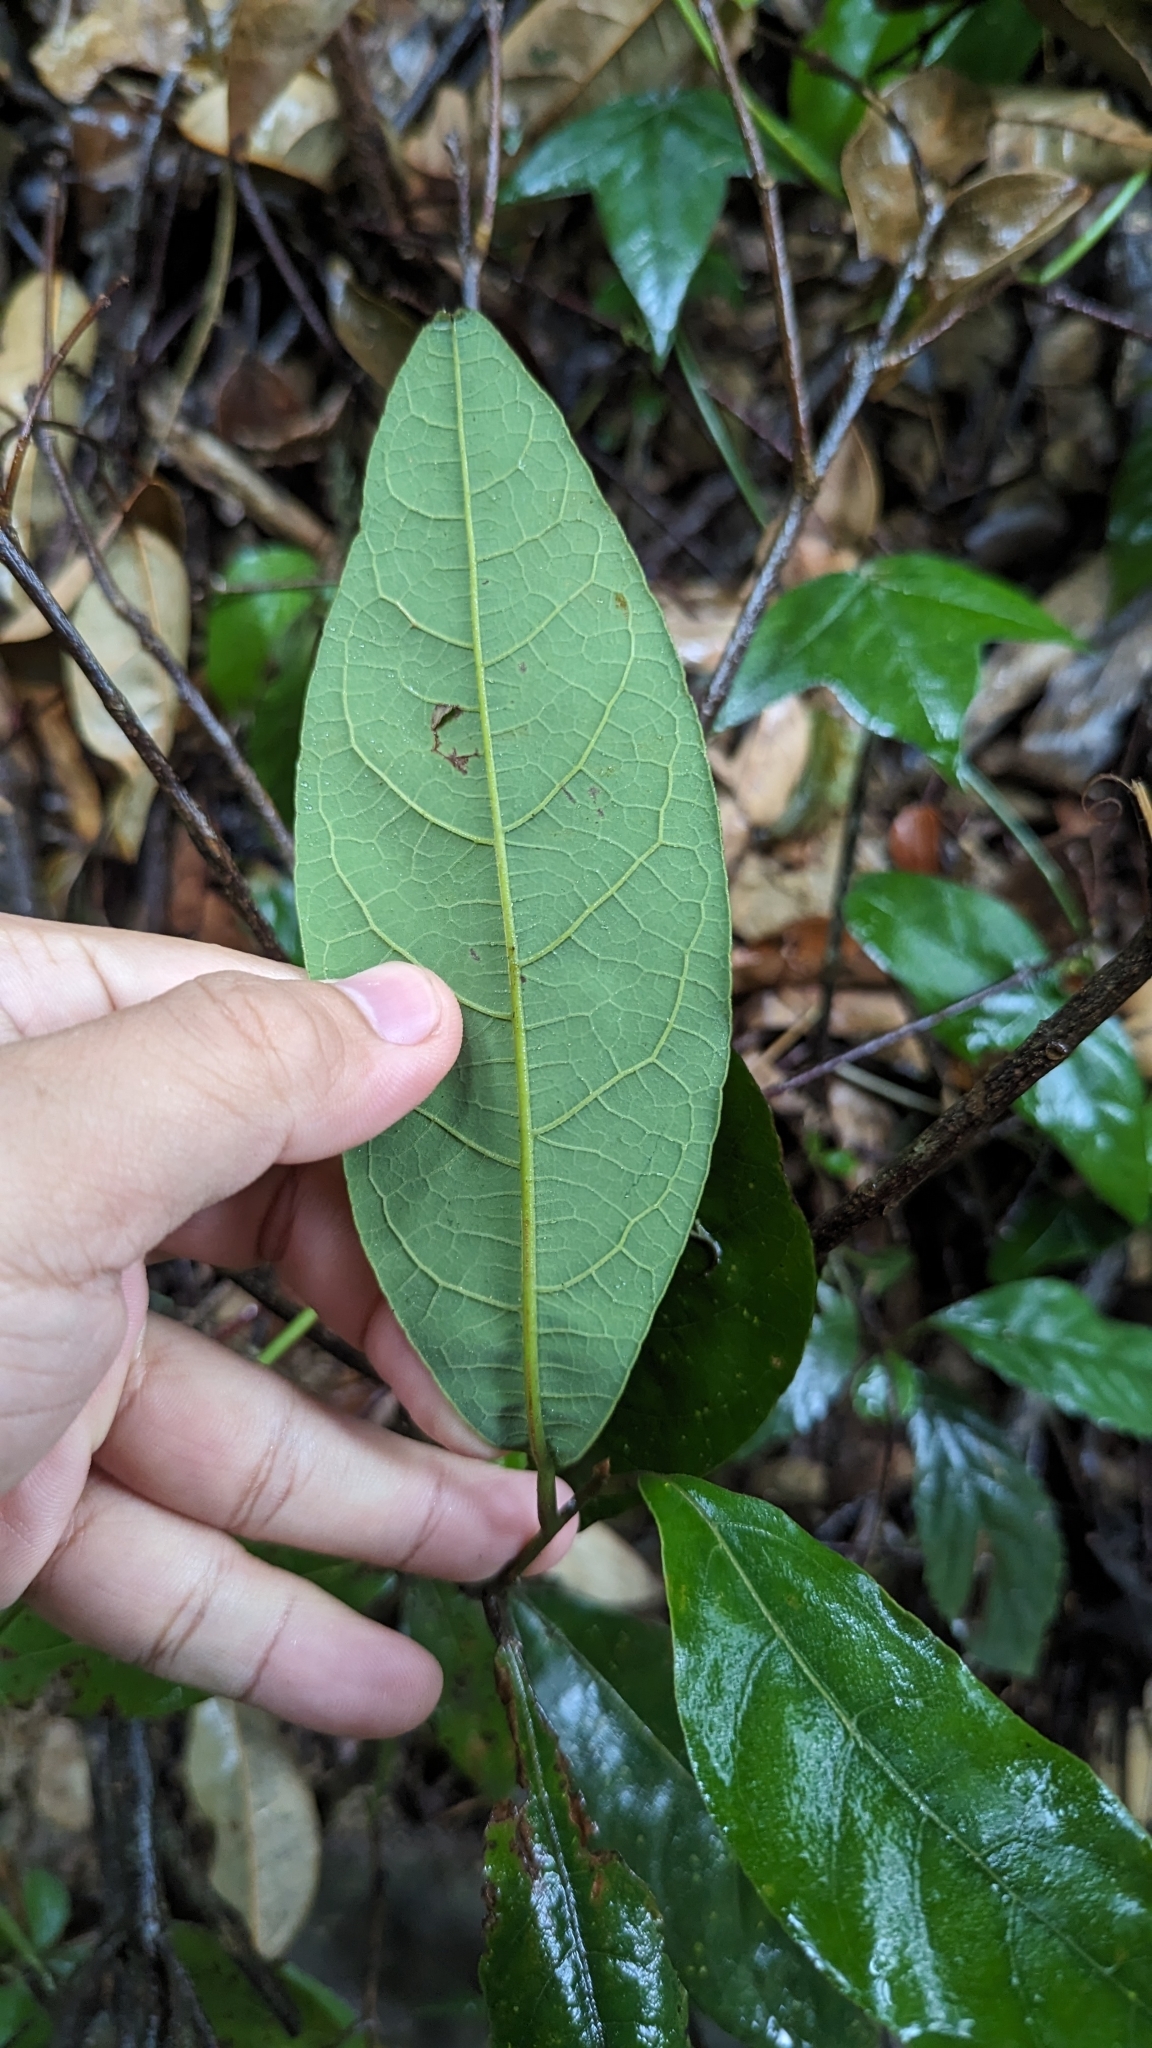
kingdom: Plantae
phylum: Tracheophyta
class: Magnoliopsida
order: Laurales
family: Lauraceae
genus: Litsea
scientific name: Litsea akoensis
